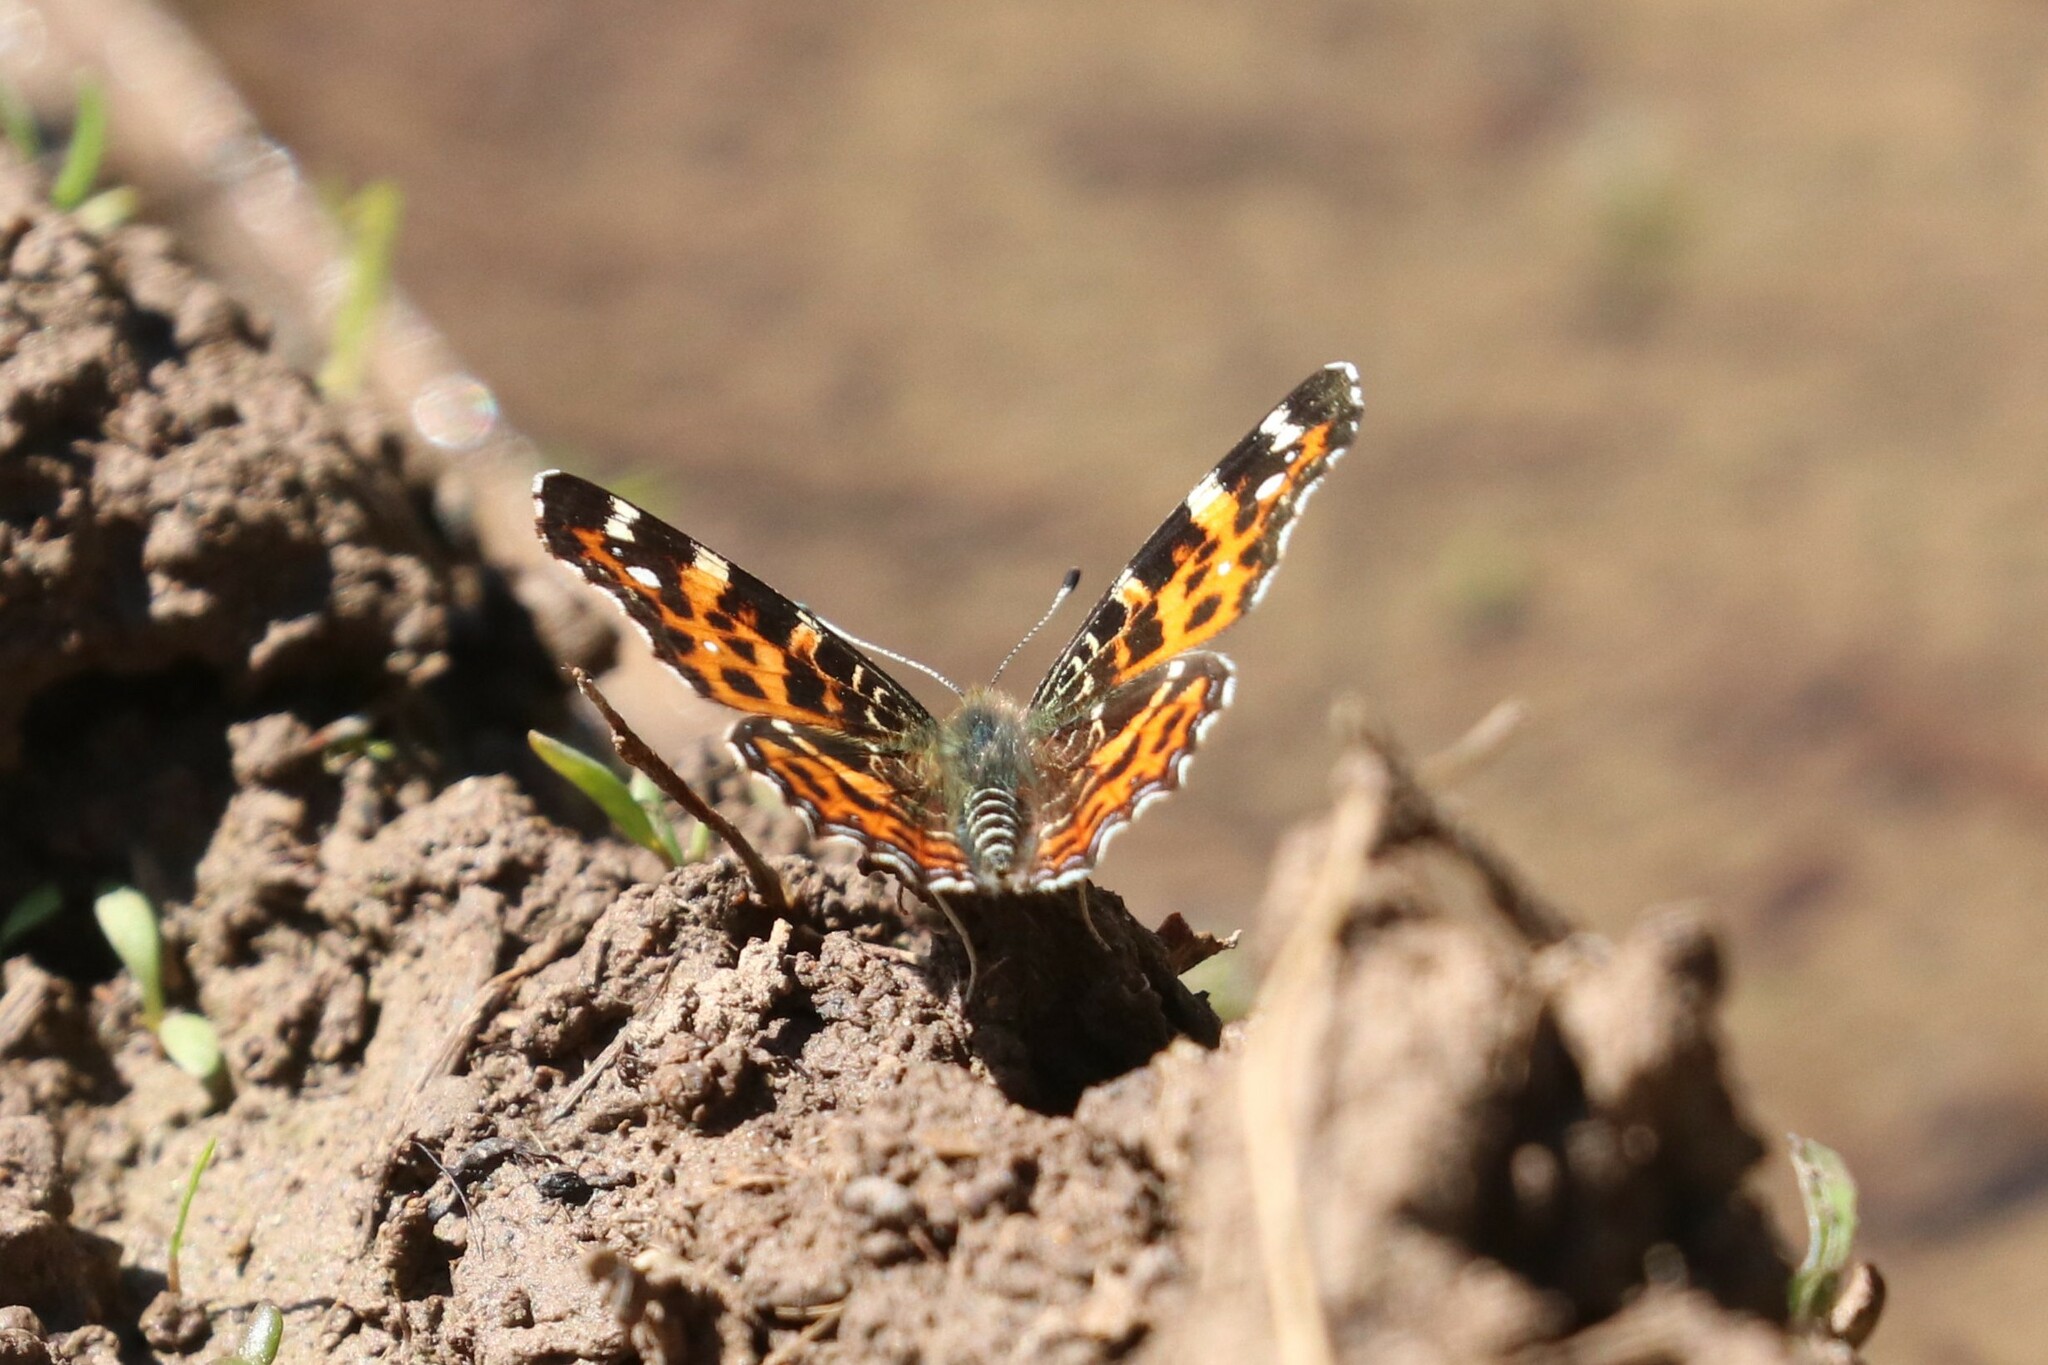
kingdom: Animalia
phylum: Arthropoda
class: Insecta
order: Lepidoptera
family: Nymphalidae
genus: Araschnia
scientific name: Araschnia levana
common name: Map butterfly
